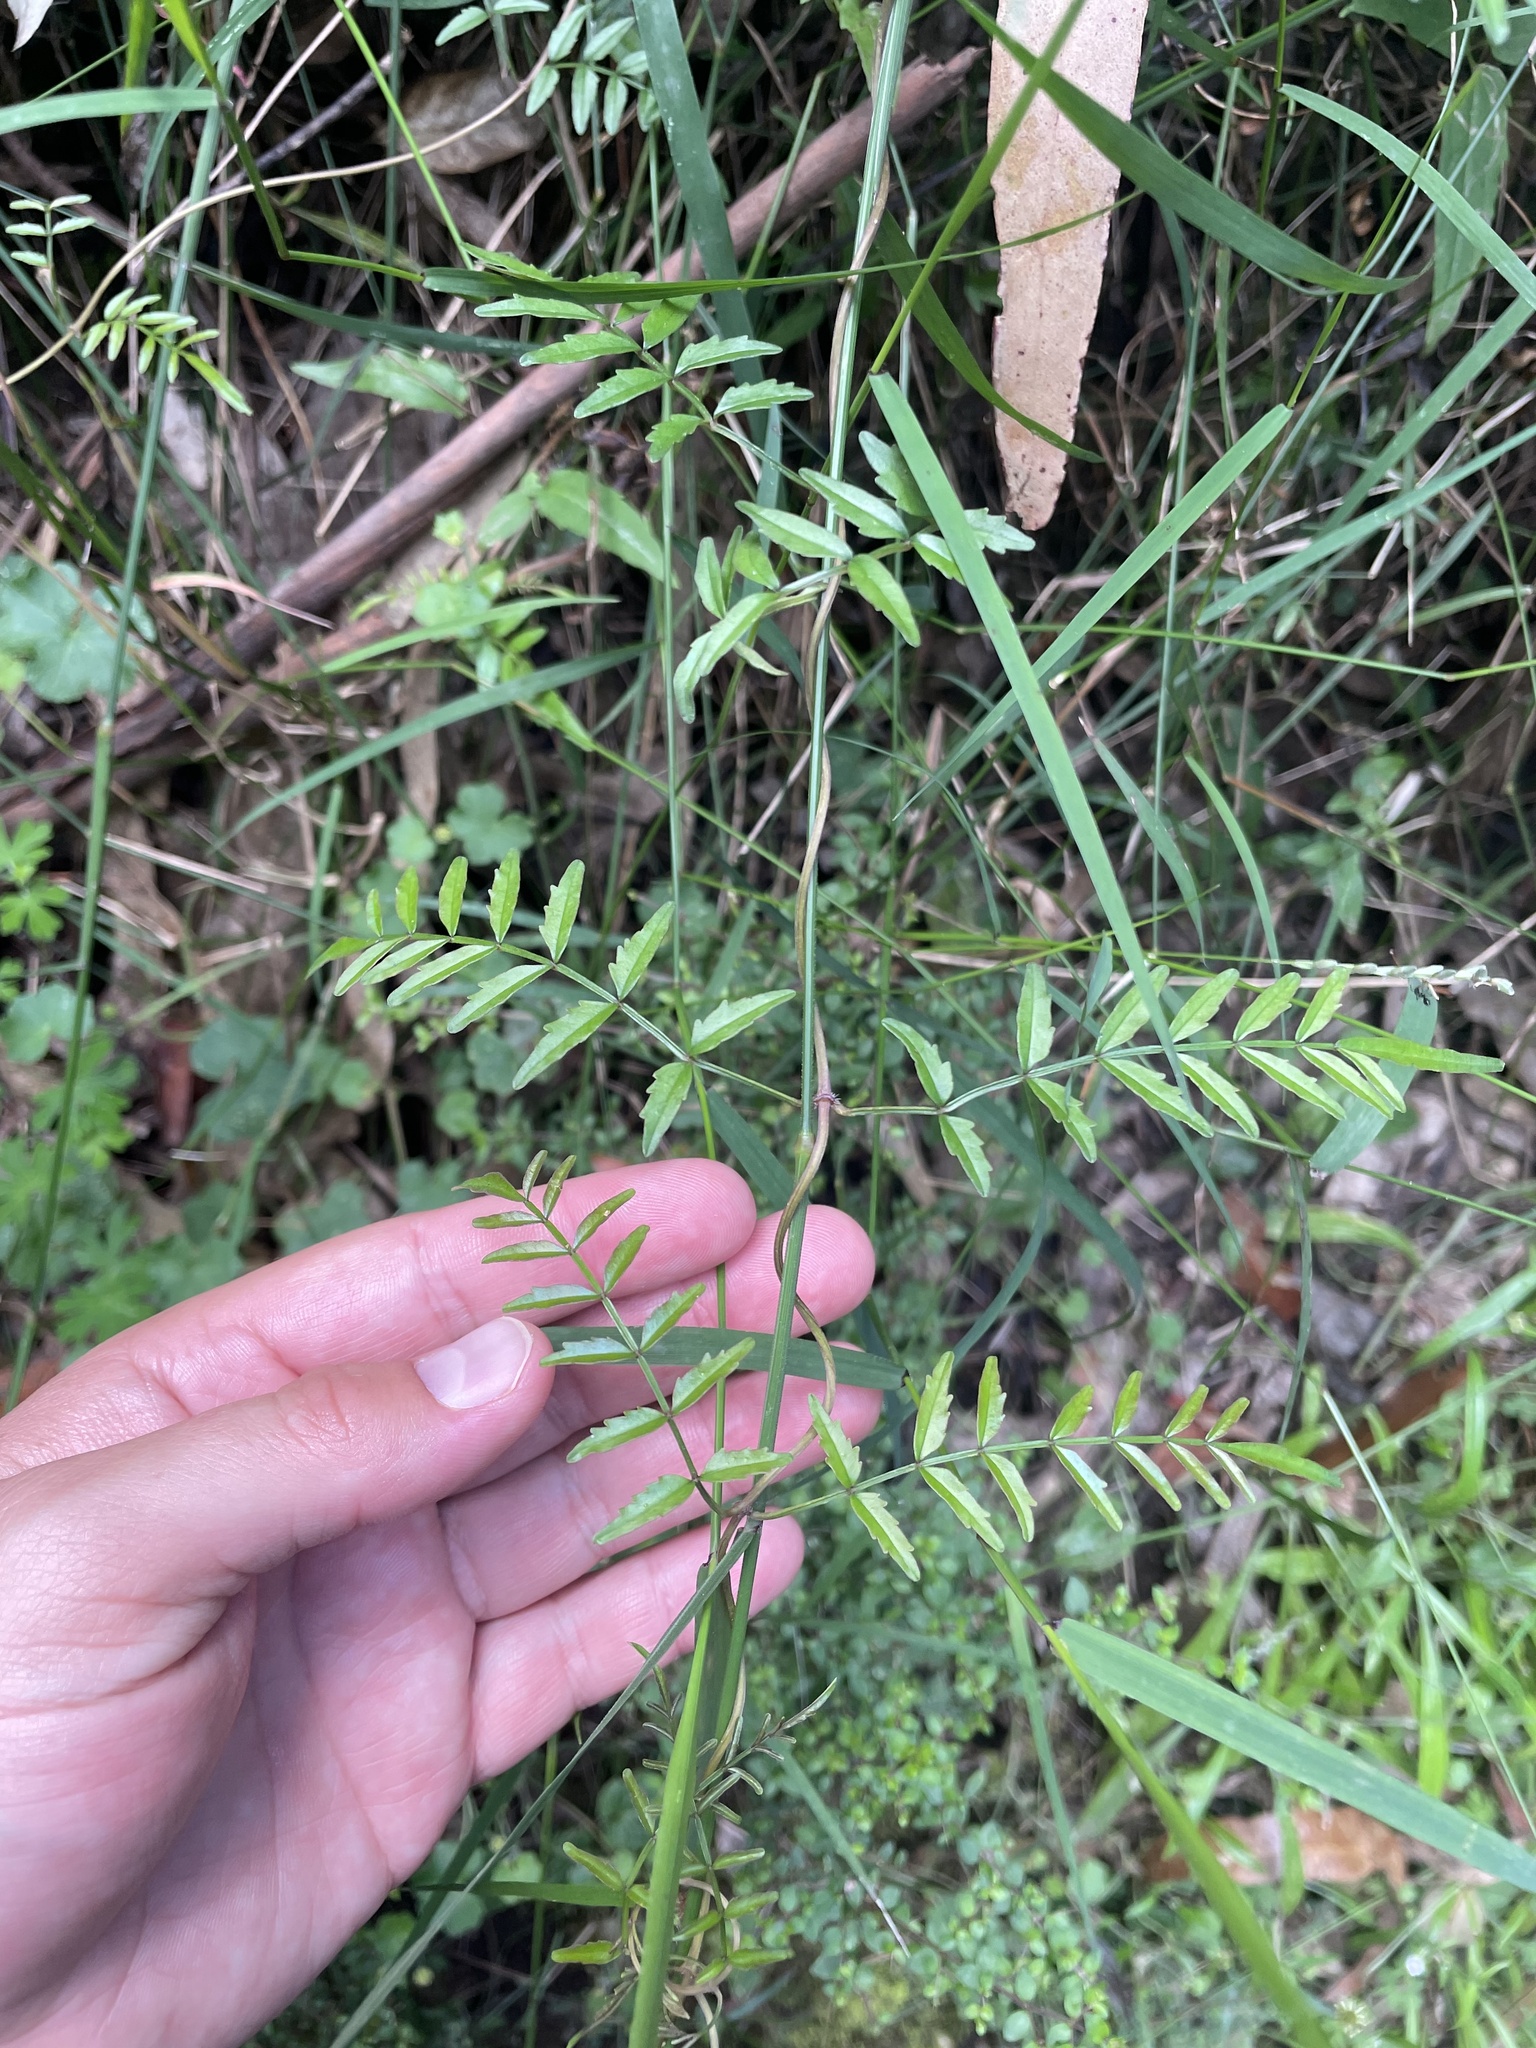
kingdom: Plantae
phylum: Tracheophyta
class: Magnoliopsida
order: Lamiales
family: Bignoniaceae
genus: Pandorea
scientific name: Pandorea pandorana
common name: Wonga-wonga-vine
